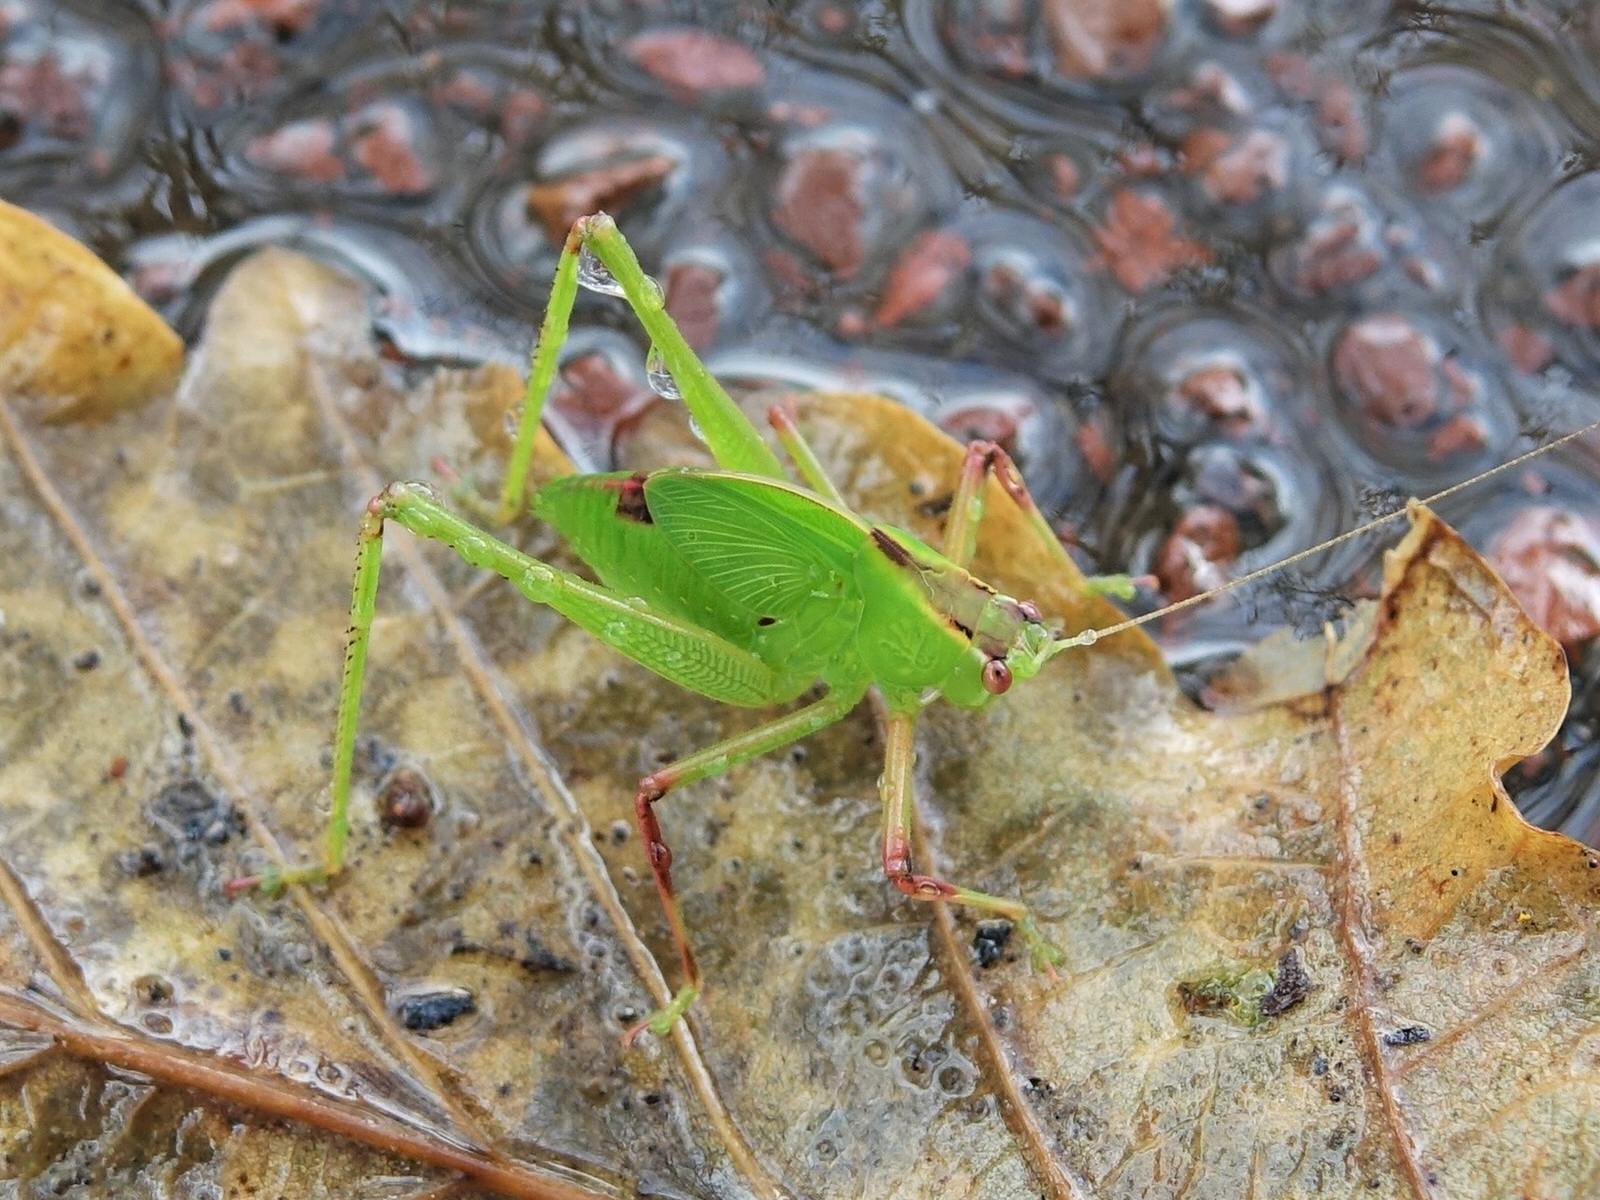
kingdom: Animalia
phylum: Arthropoda
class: Insecta
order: Orthoptera
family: Tettigoniidae
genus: Caedicia
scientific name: Caedicia simplex
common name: Common garden katydid
